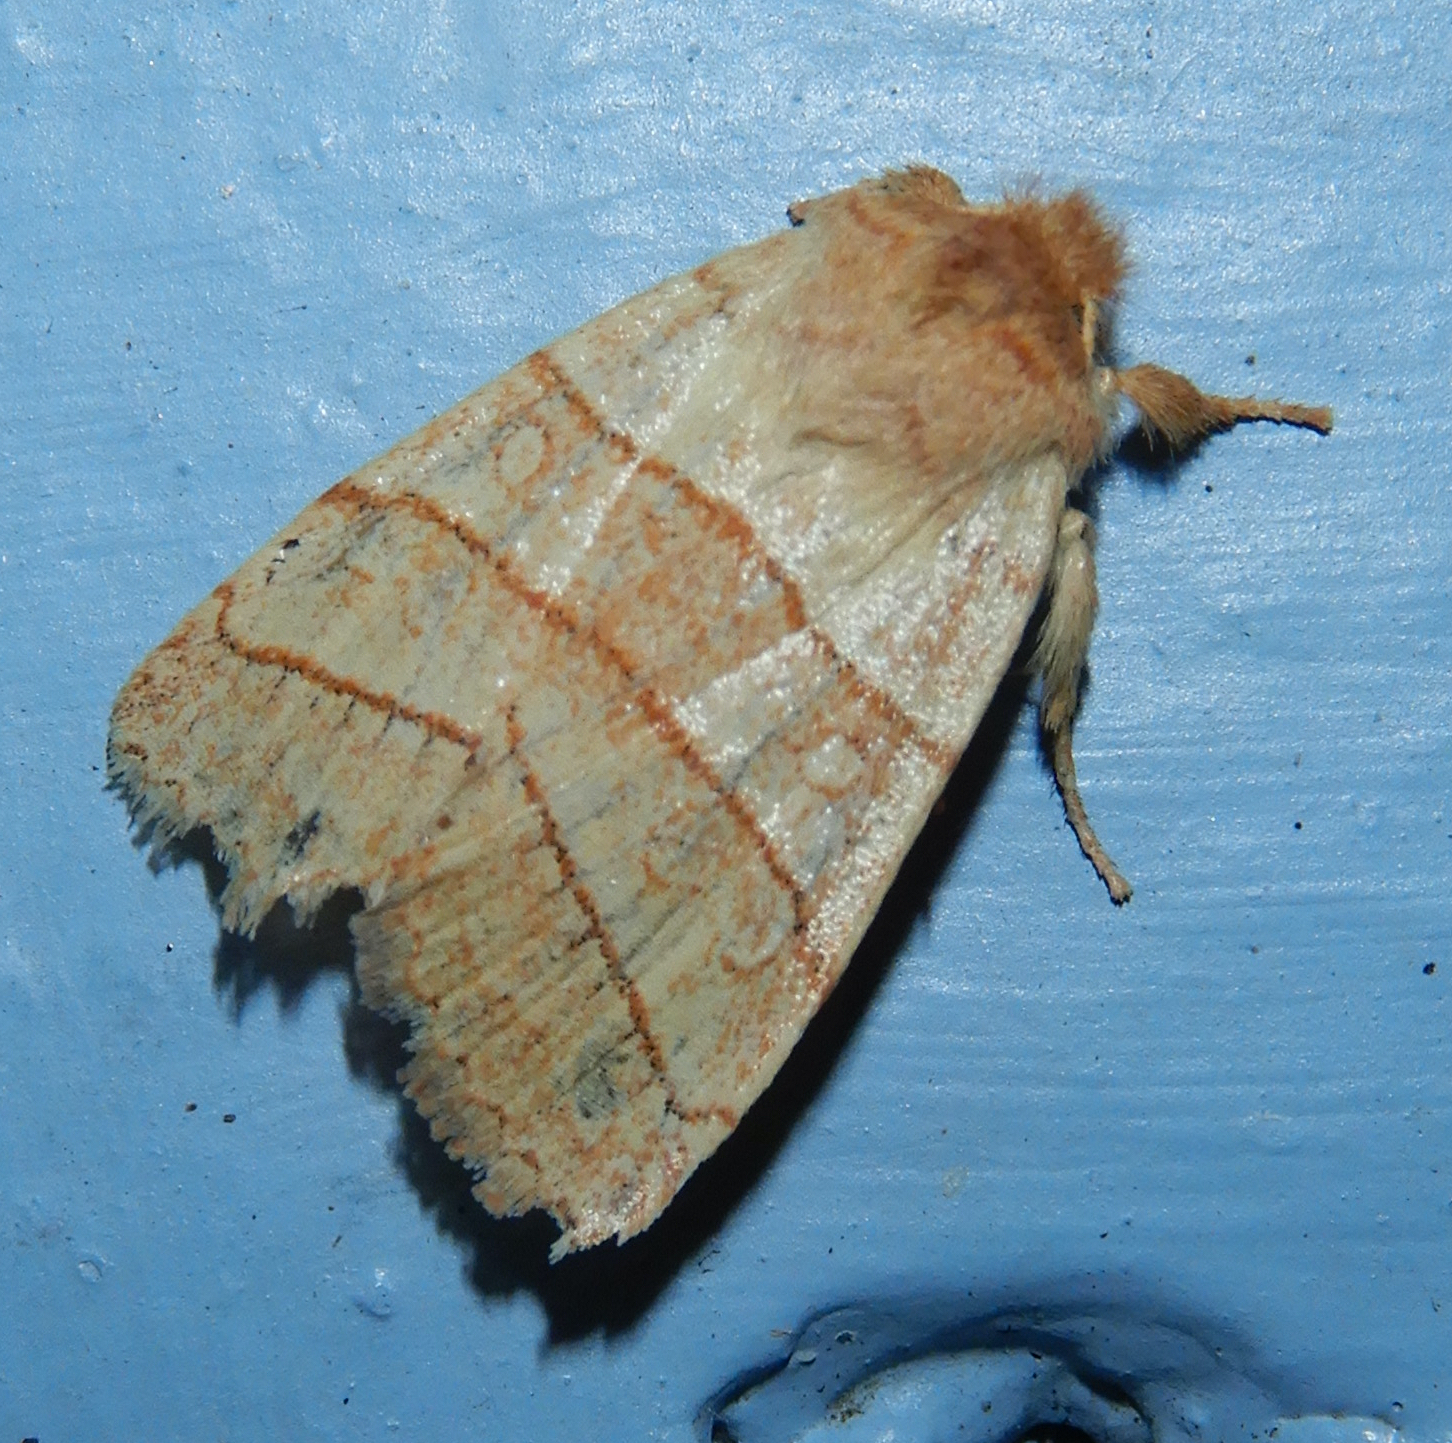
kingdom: Animalia
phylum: Arthropoda
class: Insecta
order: Lepidoptera
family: Noctuidae
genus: Pyreferra
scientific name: Pyreferra citrombra
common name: Citrine sallow
